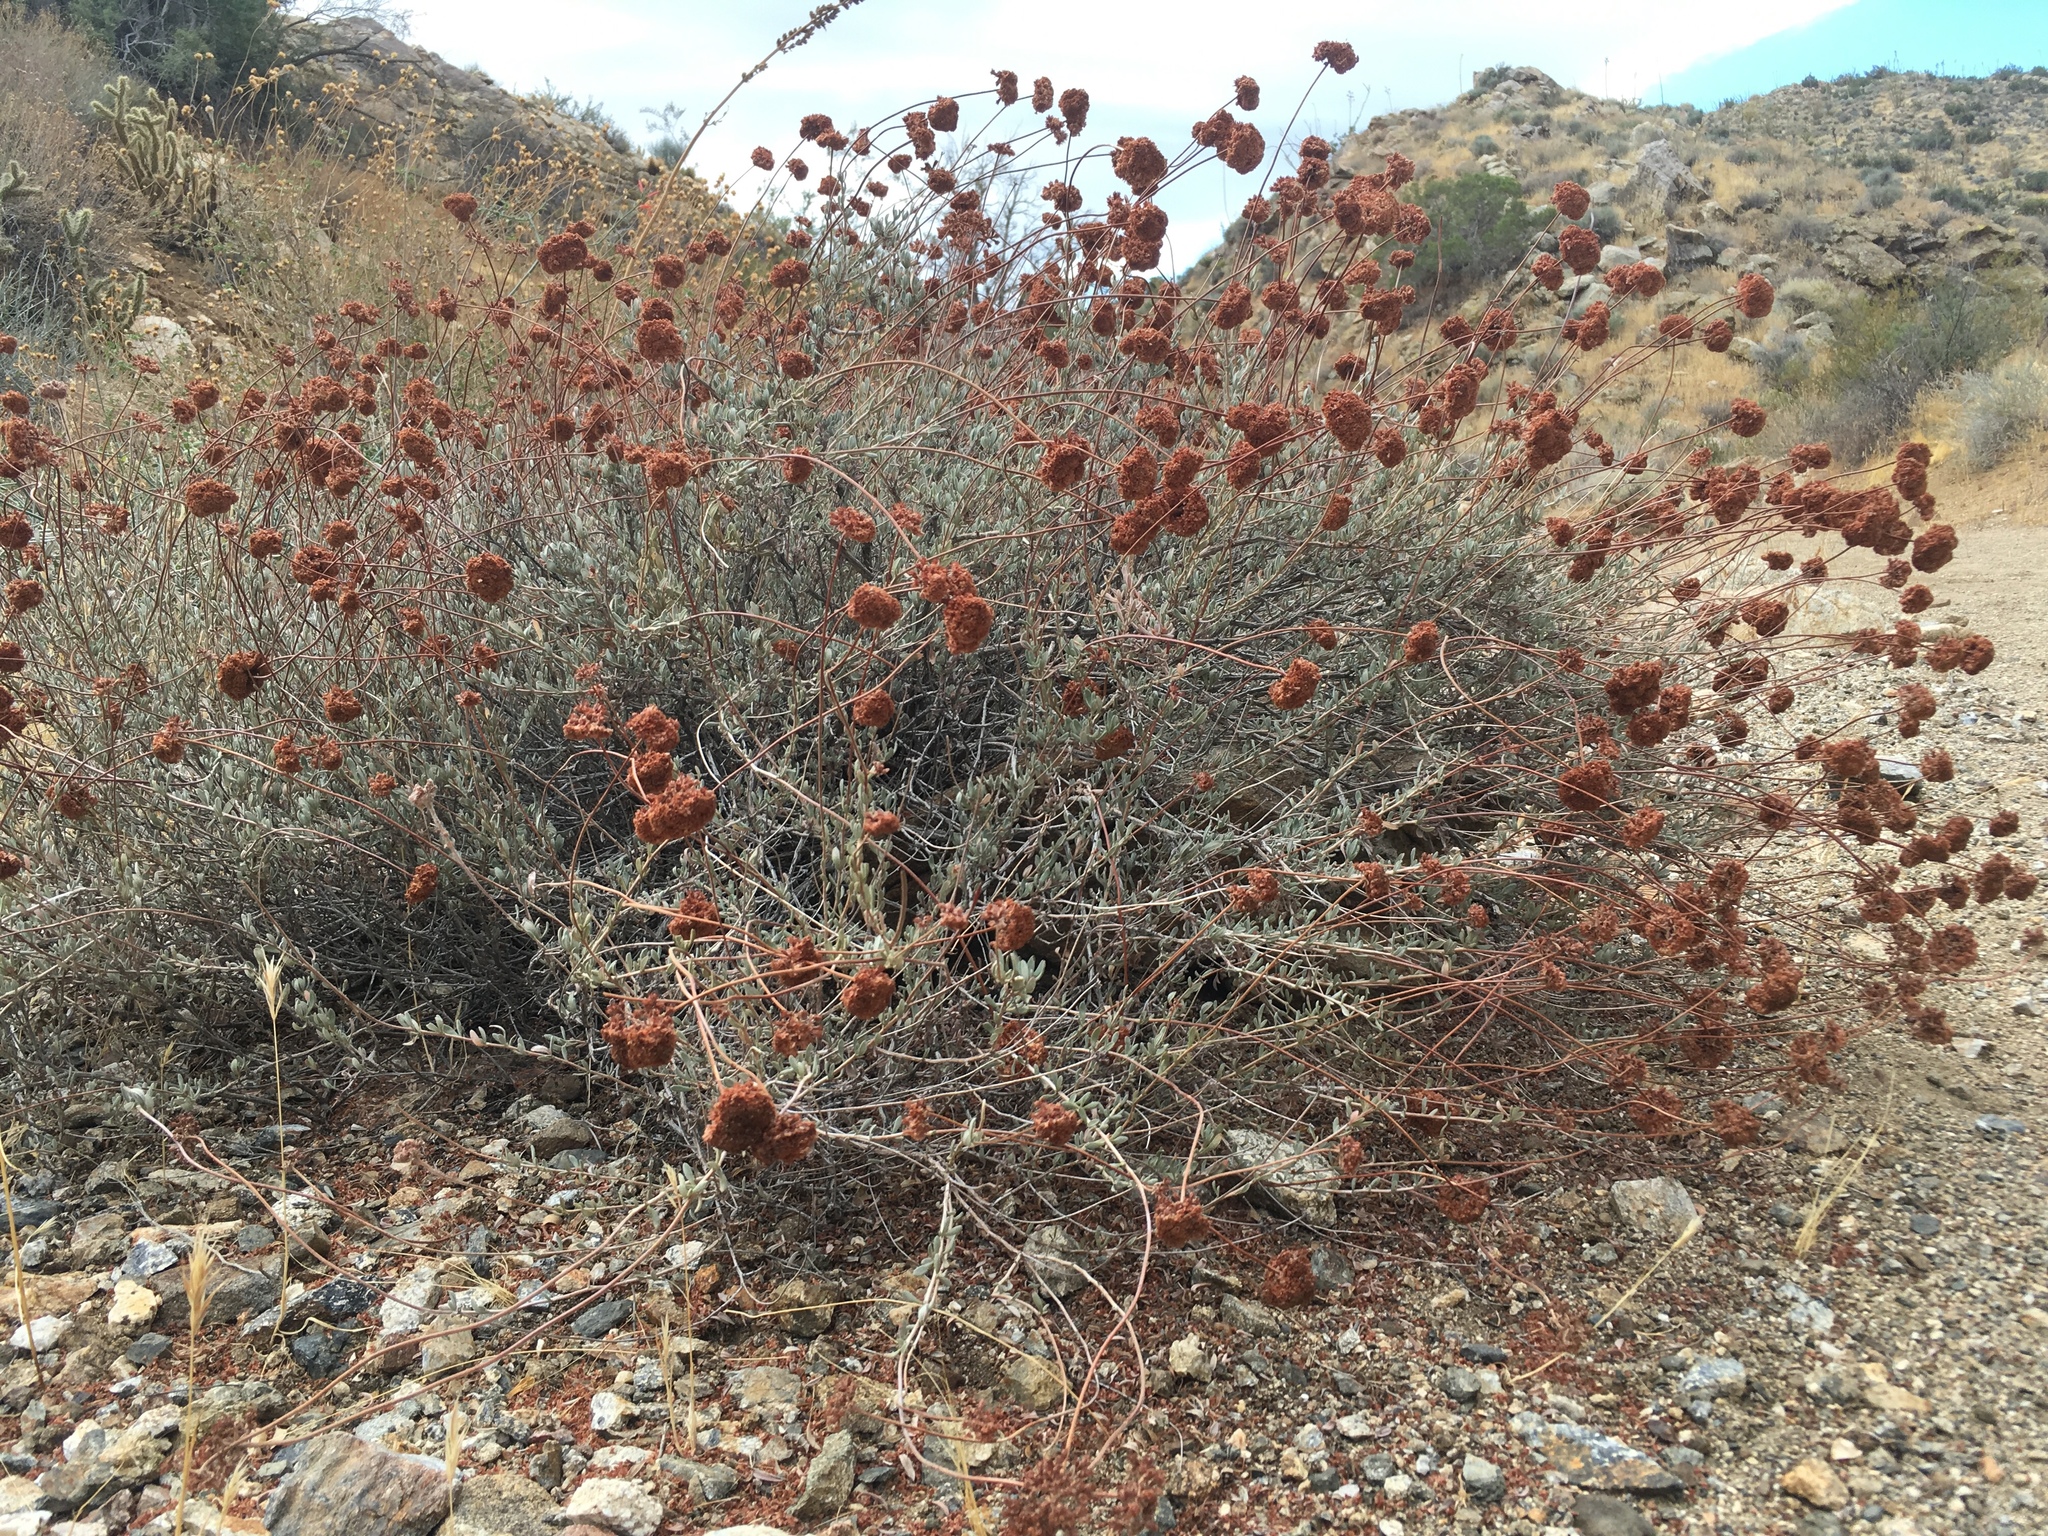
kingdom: Plantae
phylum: Tracheophyta
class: Magnoliopsida
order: Caryophyllales
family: Polygonaceae
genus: Eriogonum
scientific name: Eriogonum fasciculatum
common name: California wild buckwheat
